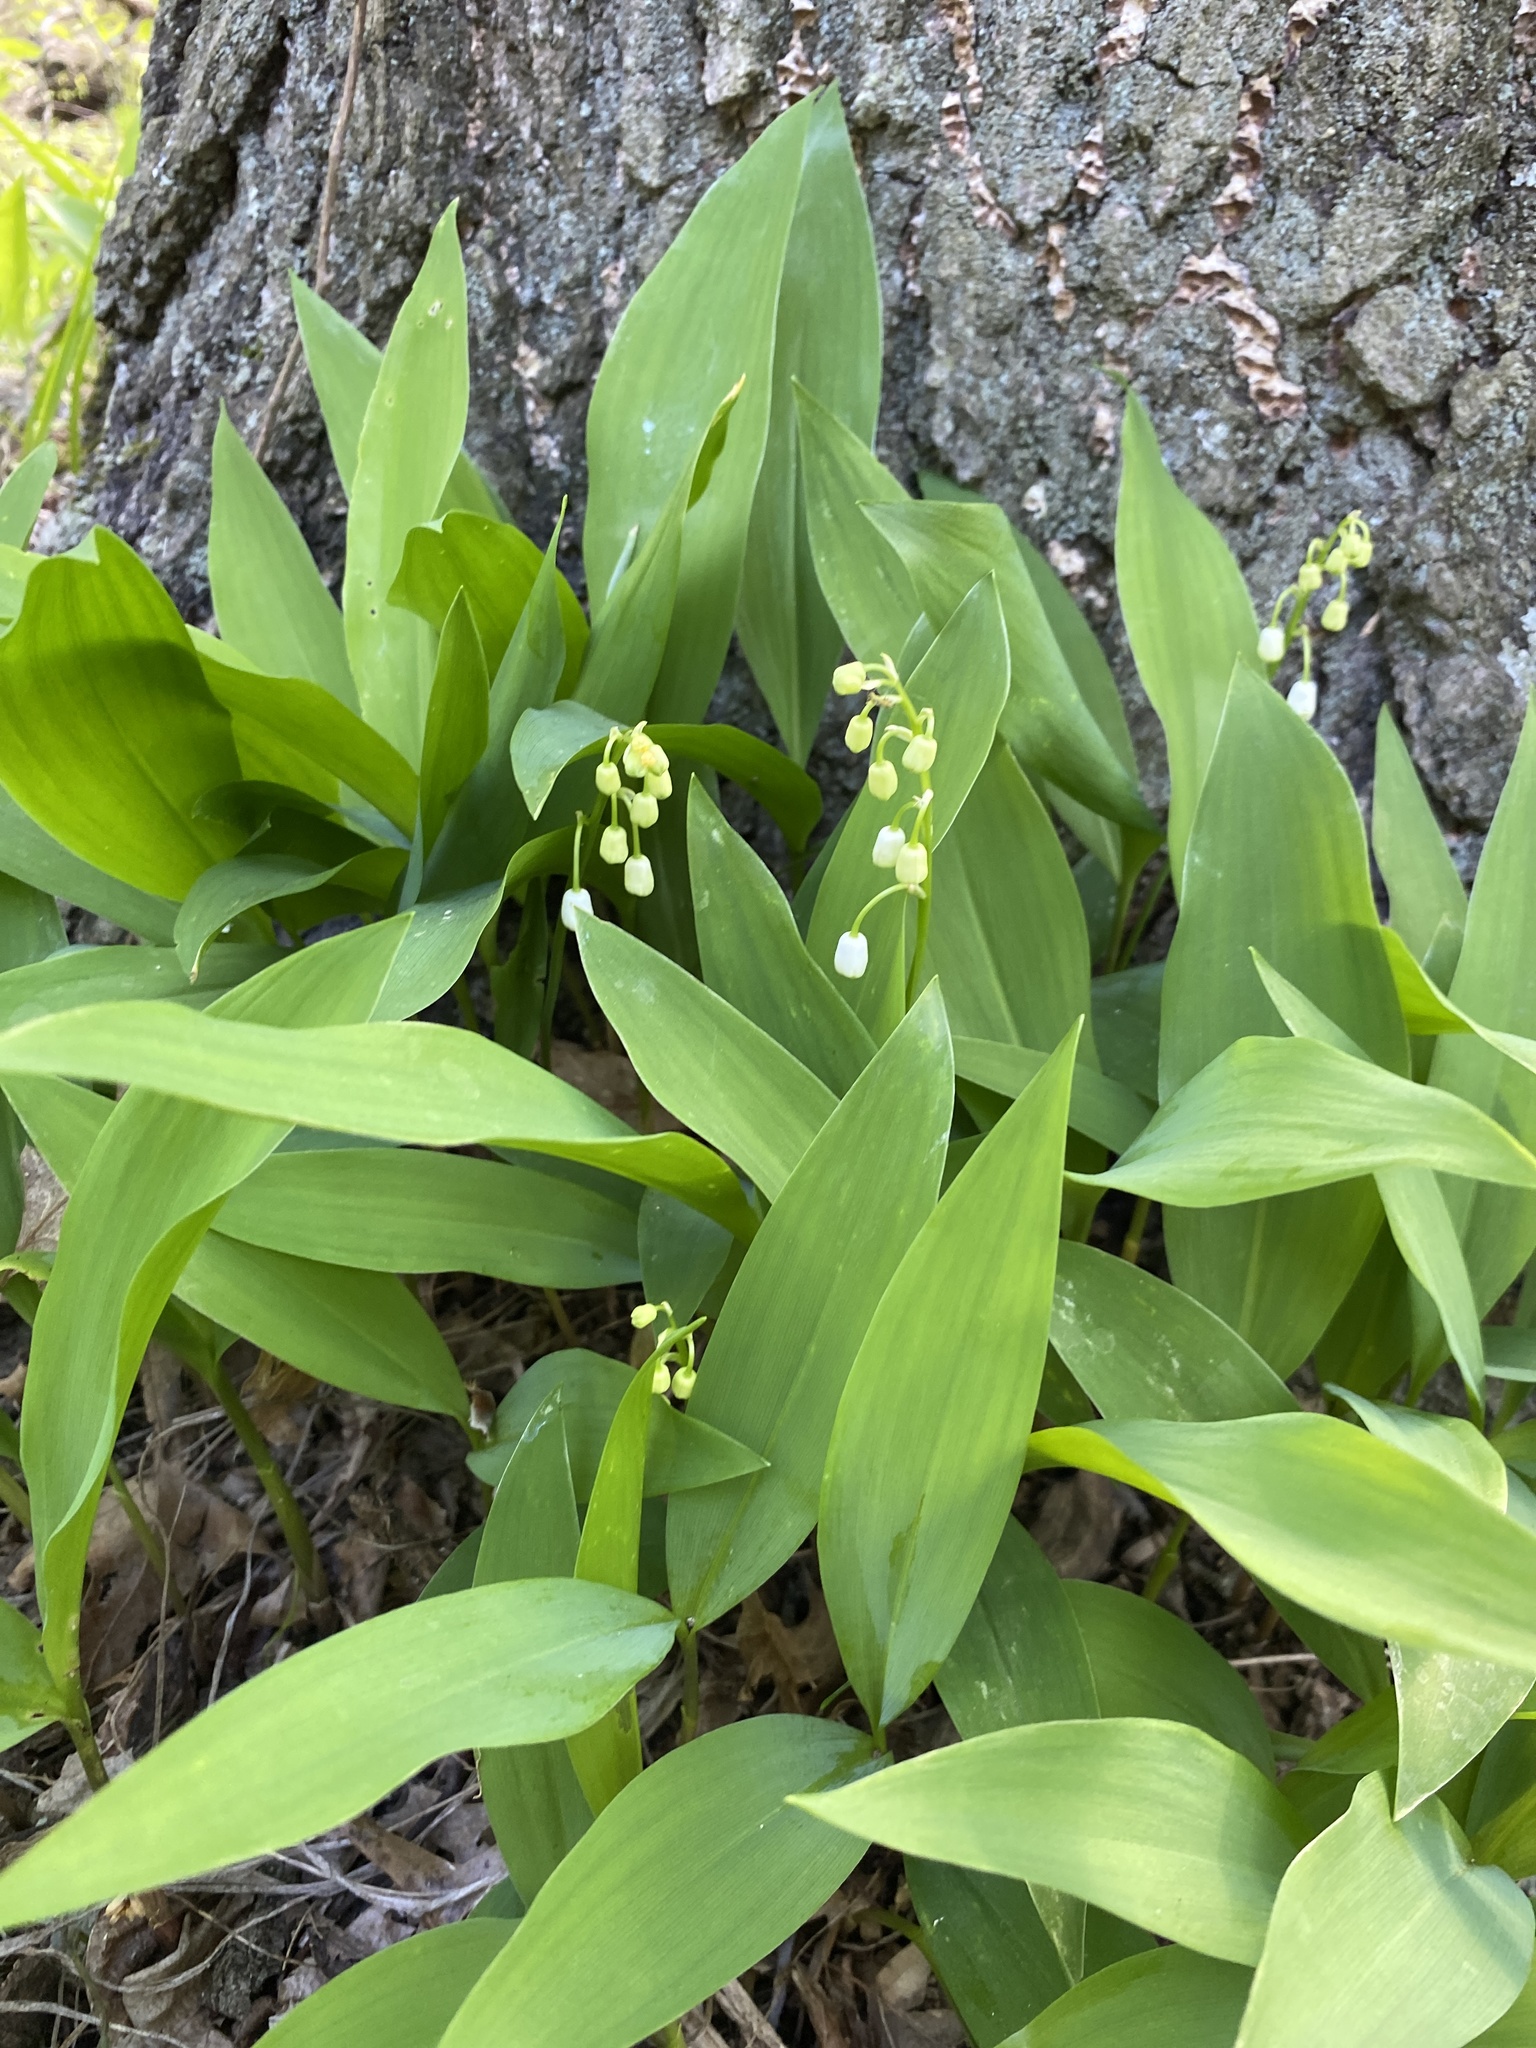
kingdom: Plantae
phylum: Tracheophyta
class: Liliopsida
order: Asparagales
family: Asparagaceae
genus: Convallaria
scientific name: Convallaria majalis
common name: Lily-of-the-valley
